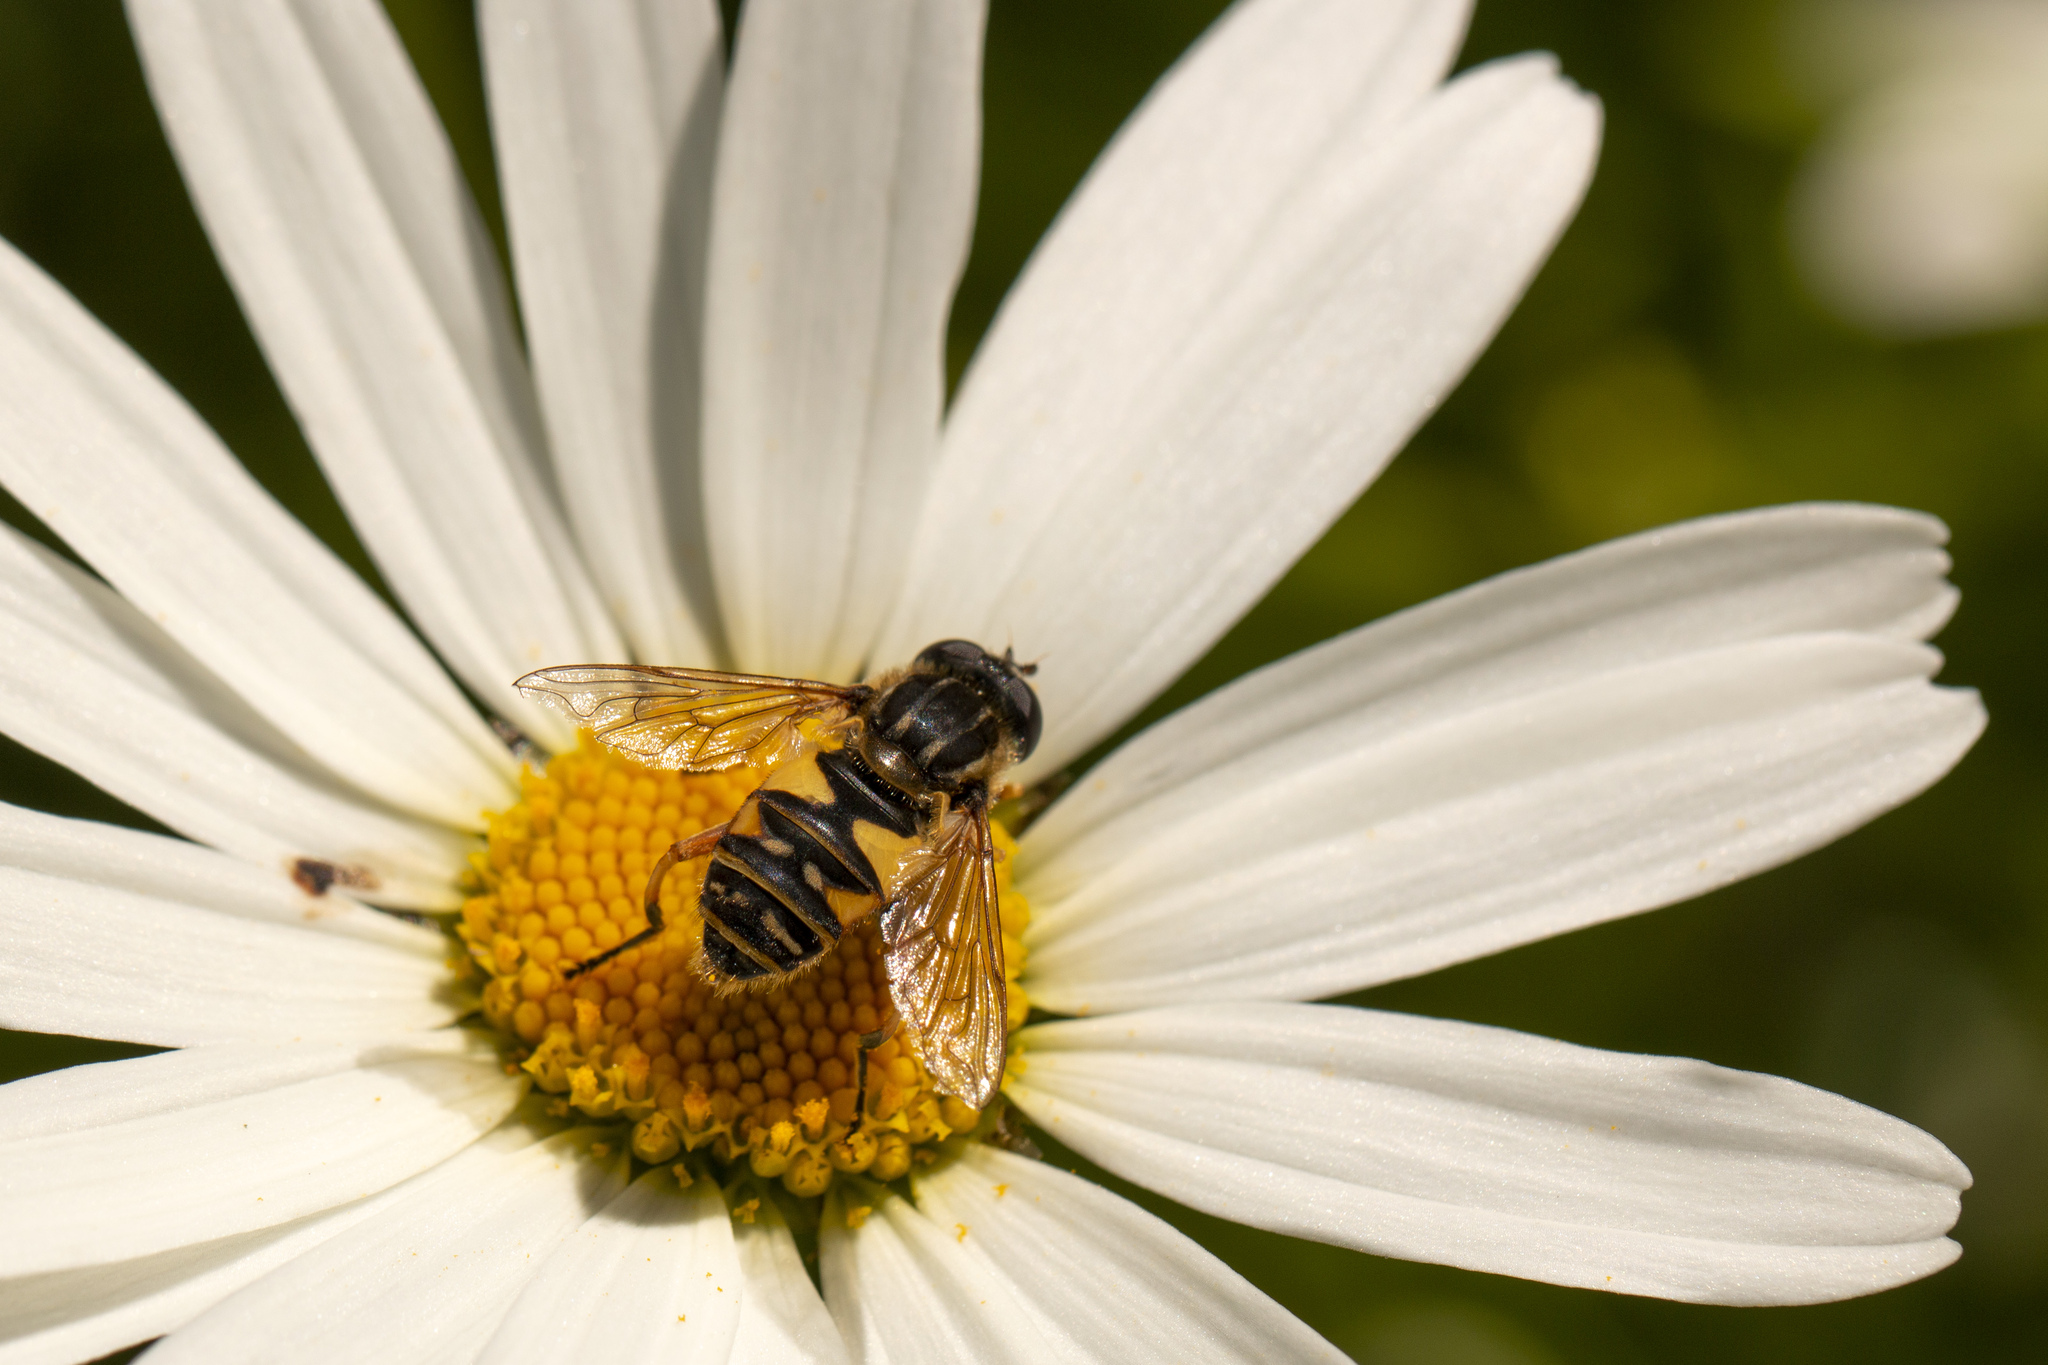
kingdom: Animalia
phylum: Arthropoda
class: Insecta
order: Diptera
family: Syrphidae
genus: Helophilus
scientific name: Helophilus pendulus
